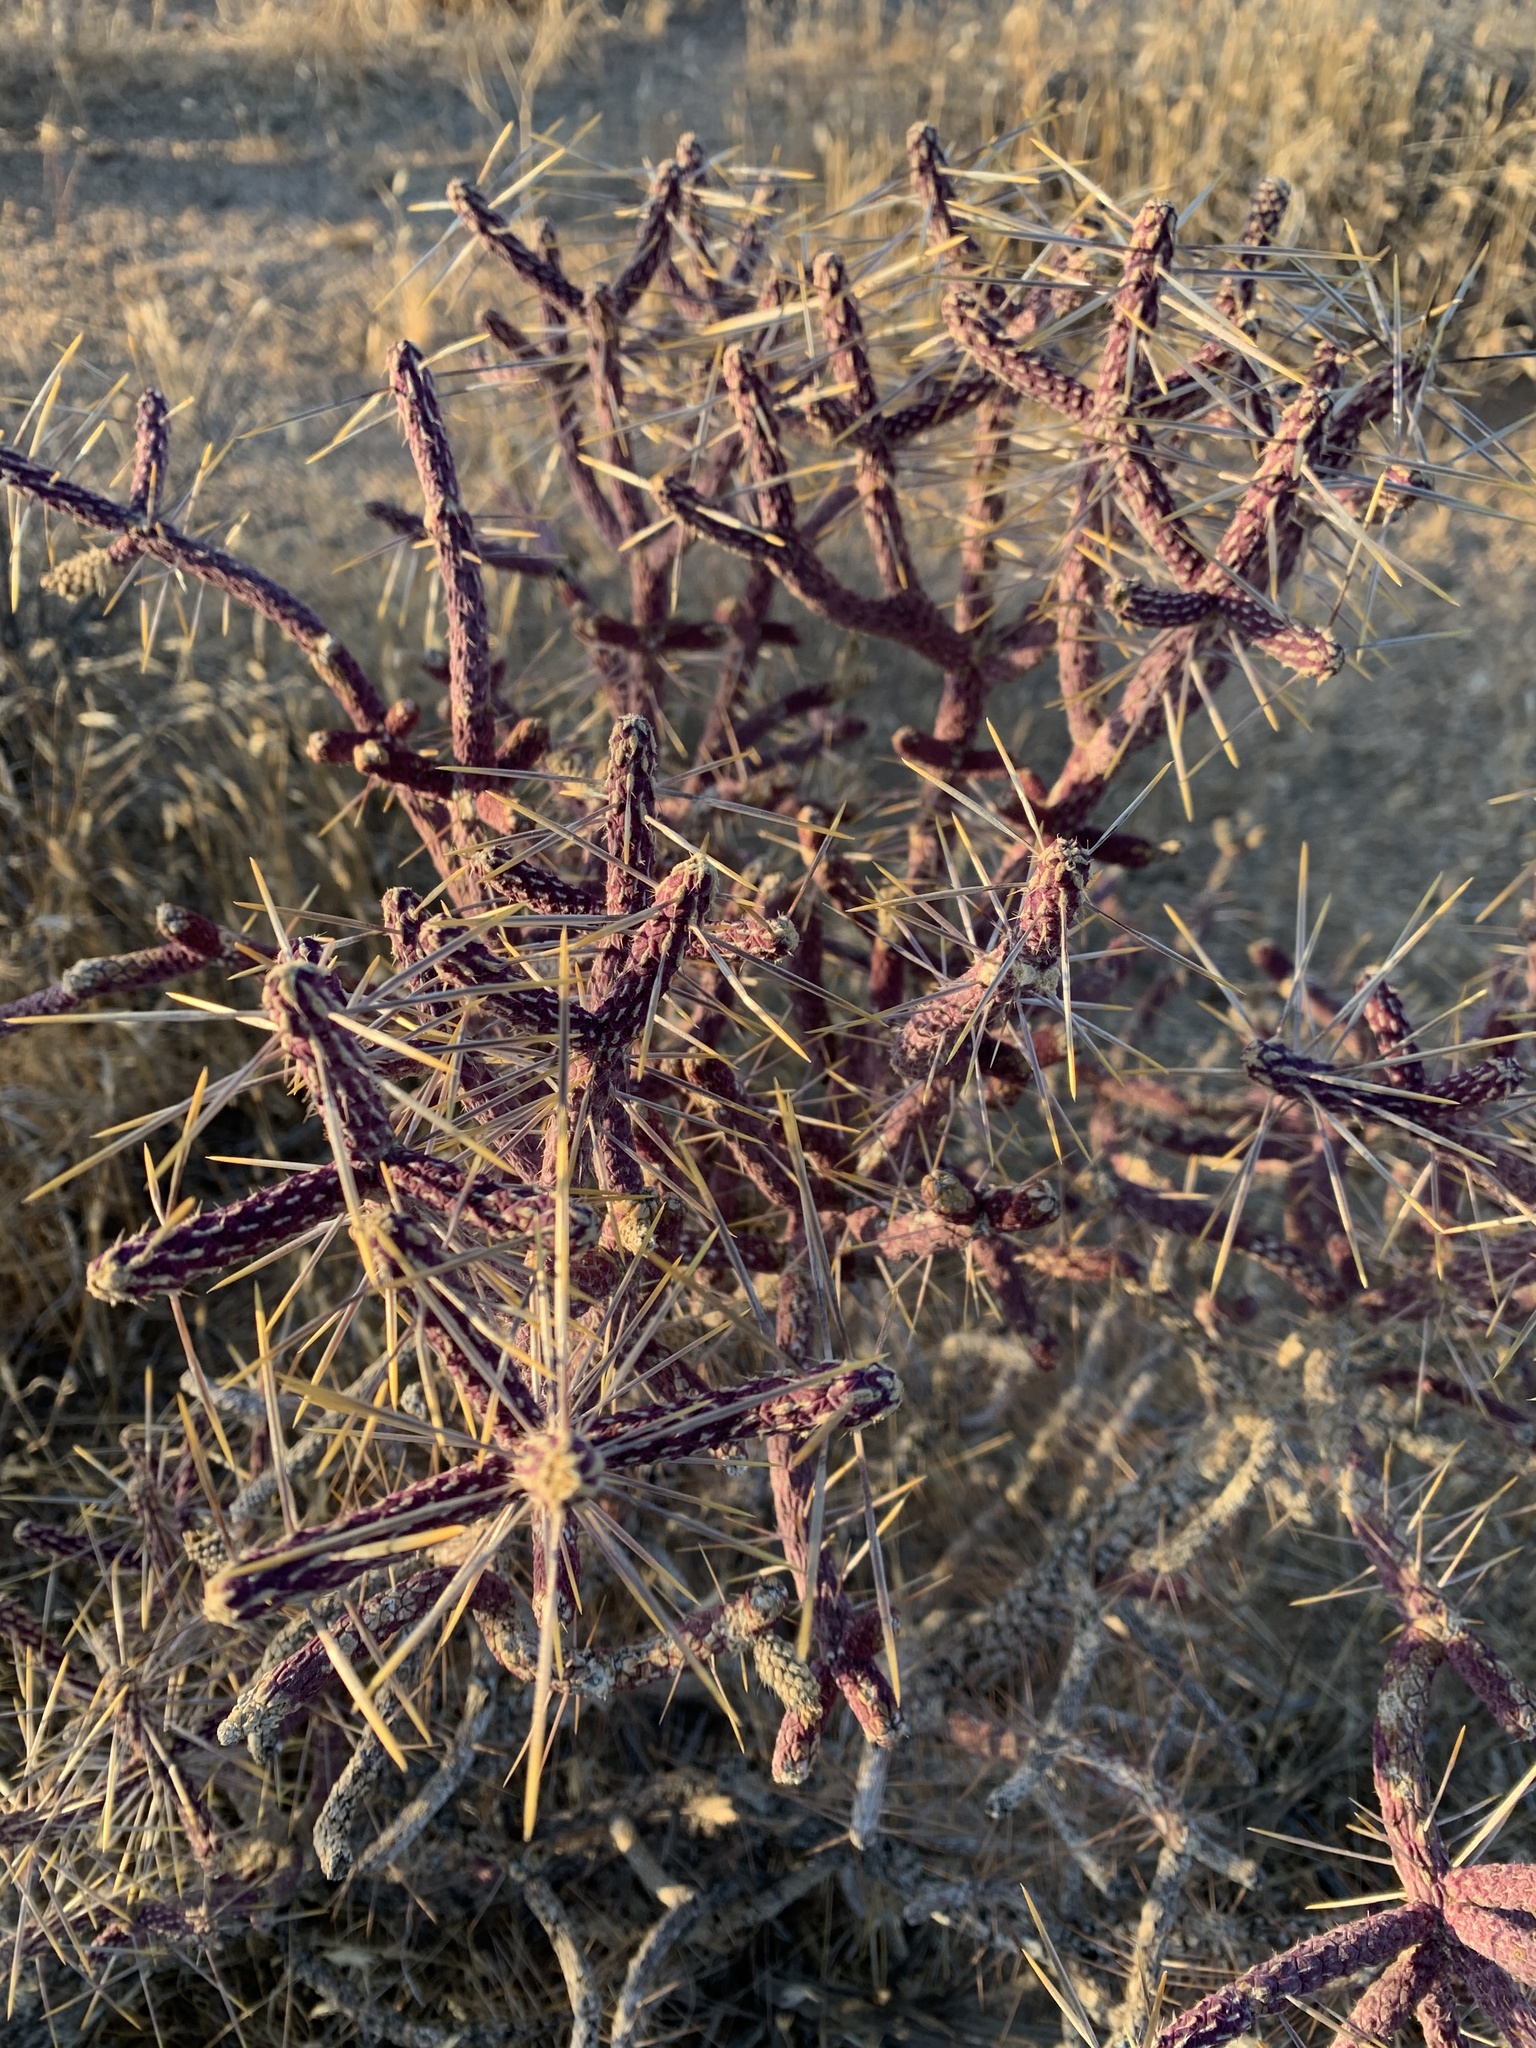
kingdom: Plantae
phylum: Tracheophyta
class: Magnoliopsida
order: Caryophyllales
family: Cactaceae
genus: Cylindropuntia
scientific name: Cylindropuntia ramosissima
